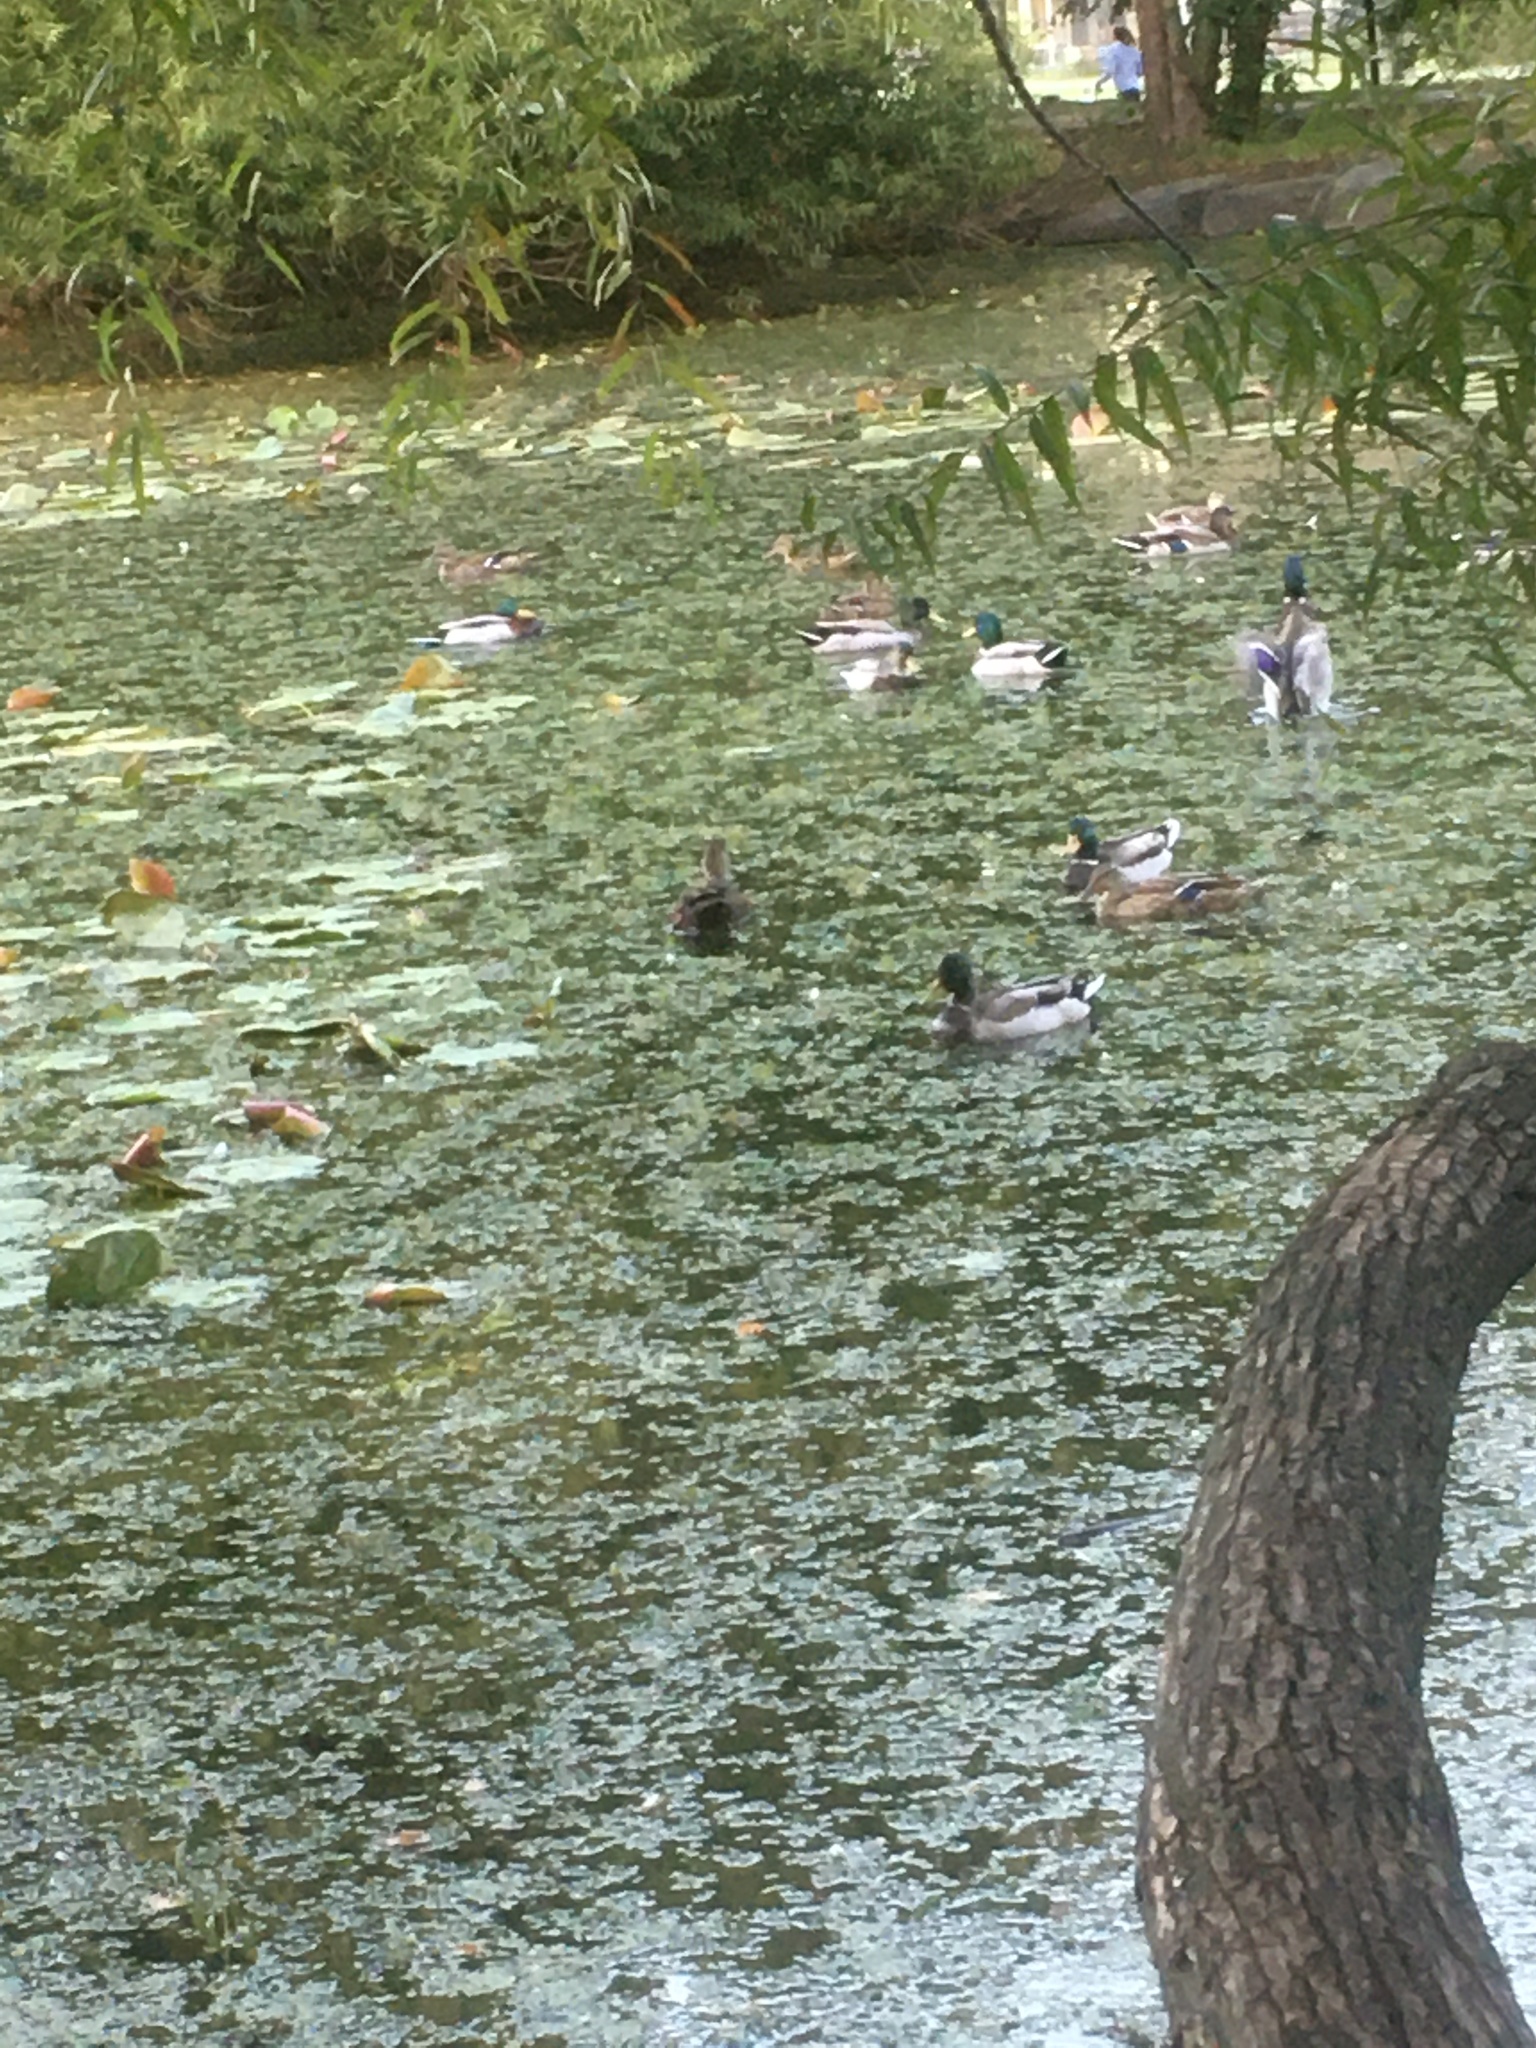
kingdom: Animalia
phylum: Chordata
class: Aves
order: Anseriformes
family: Anatidae
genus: Anas
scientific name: Anas platyrhynchos
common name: Mallard
